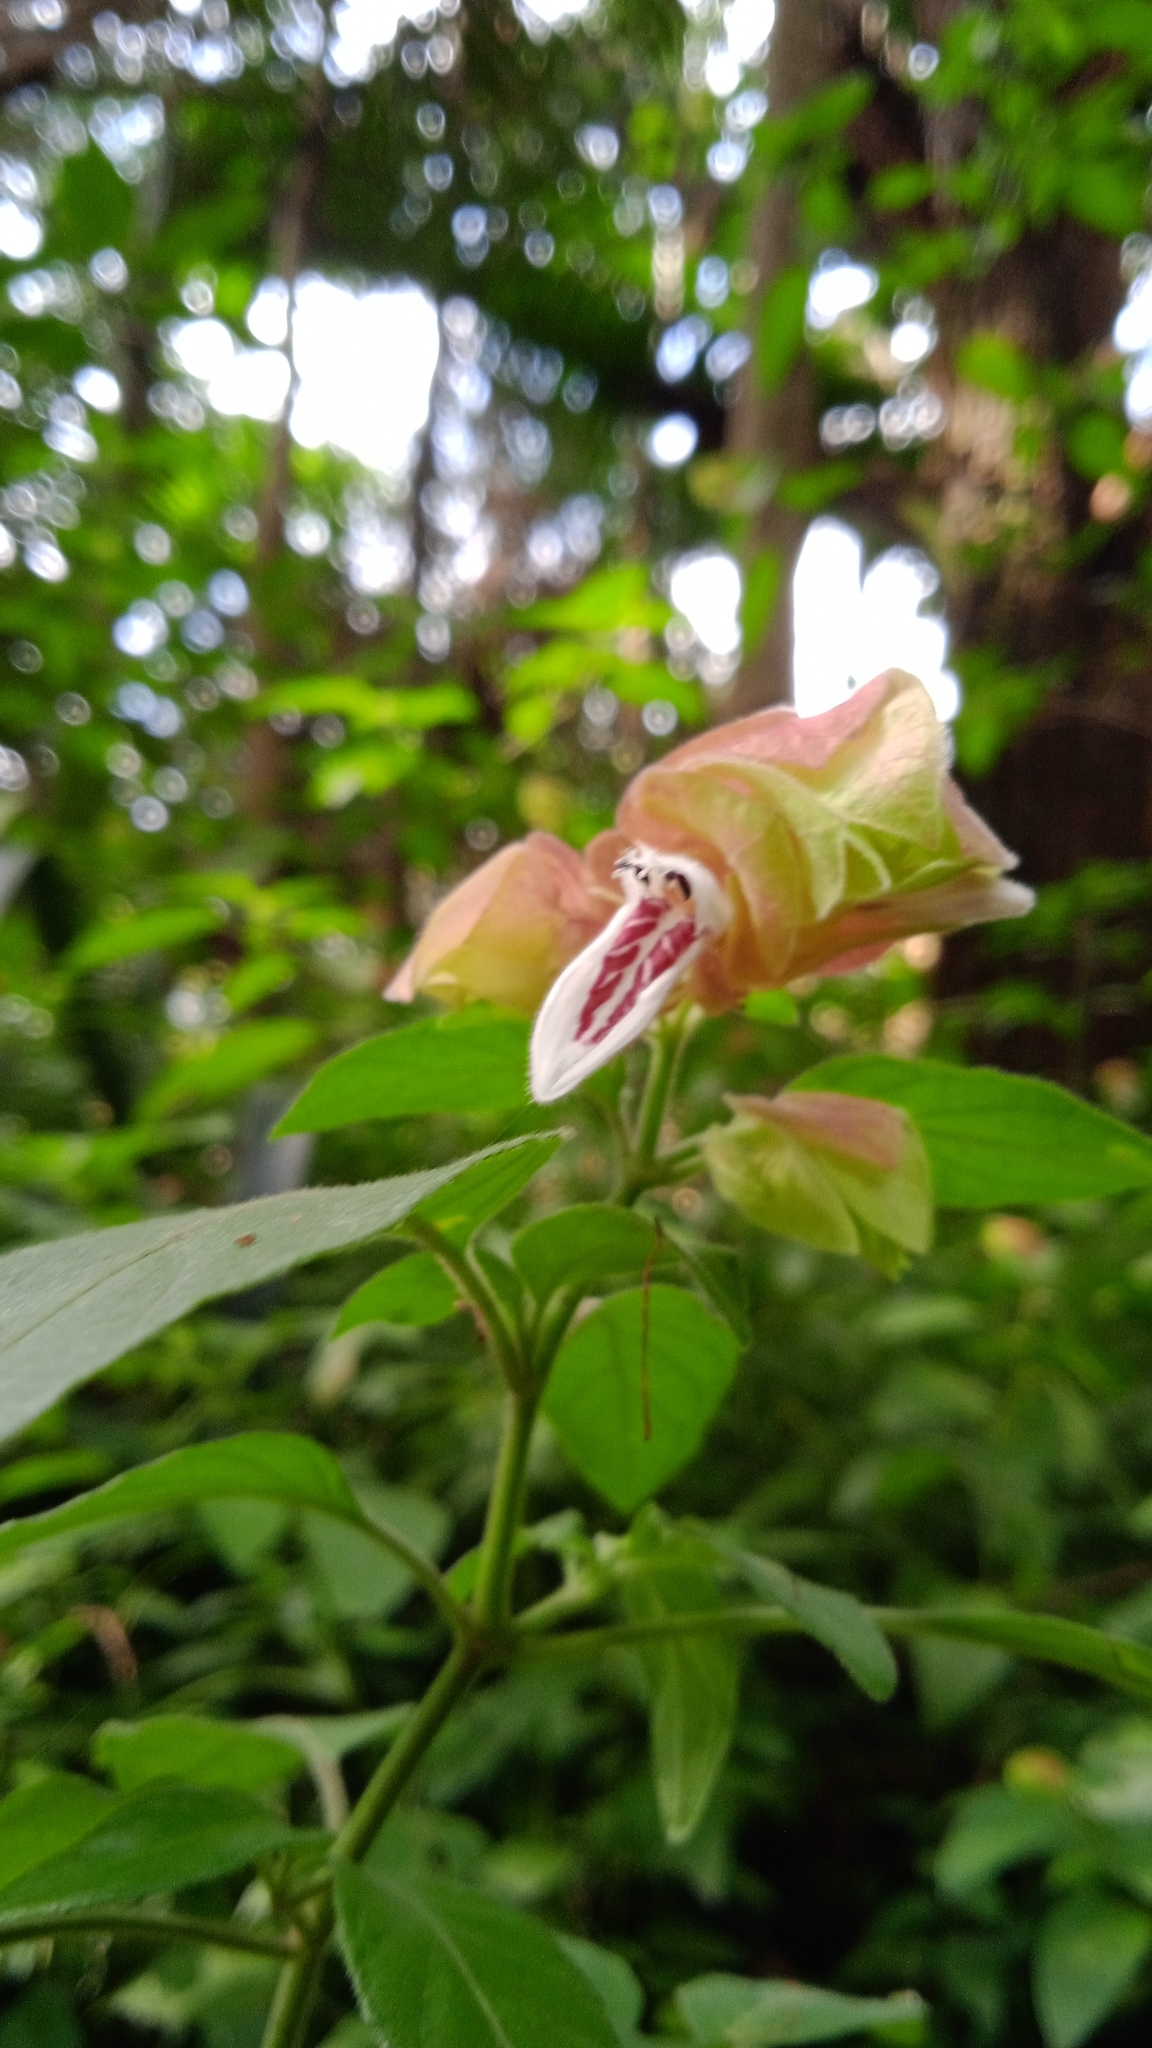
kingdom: Plantae
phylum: Tracheophyta
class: Magnoliopsida
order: Lamiales
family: Acanthaceae
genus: Justicia
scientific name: Justicia brandegeeana
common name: Shrimpplant
